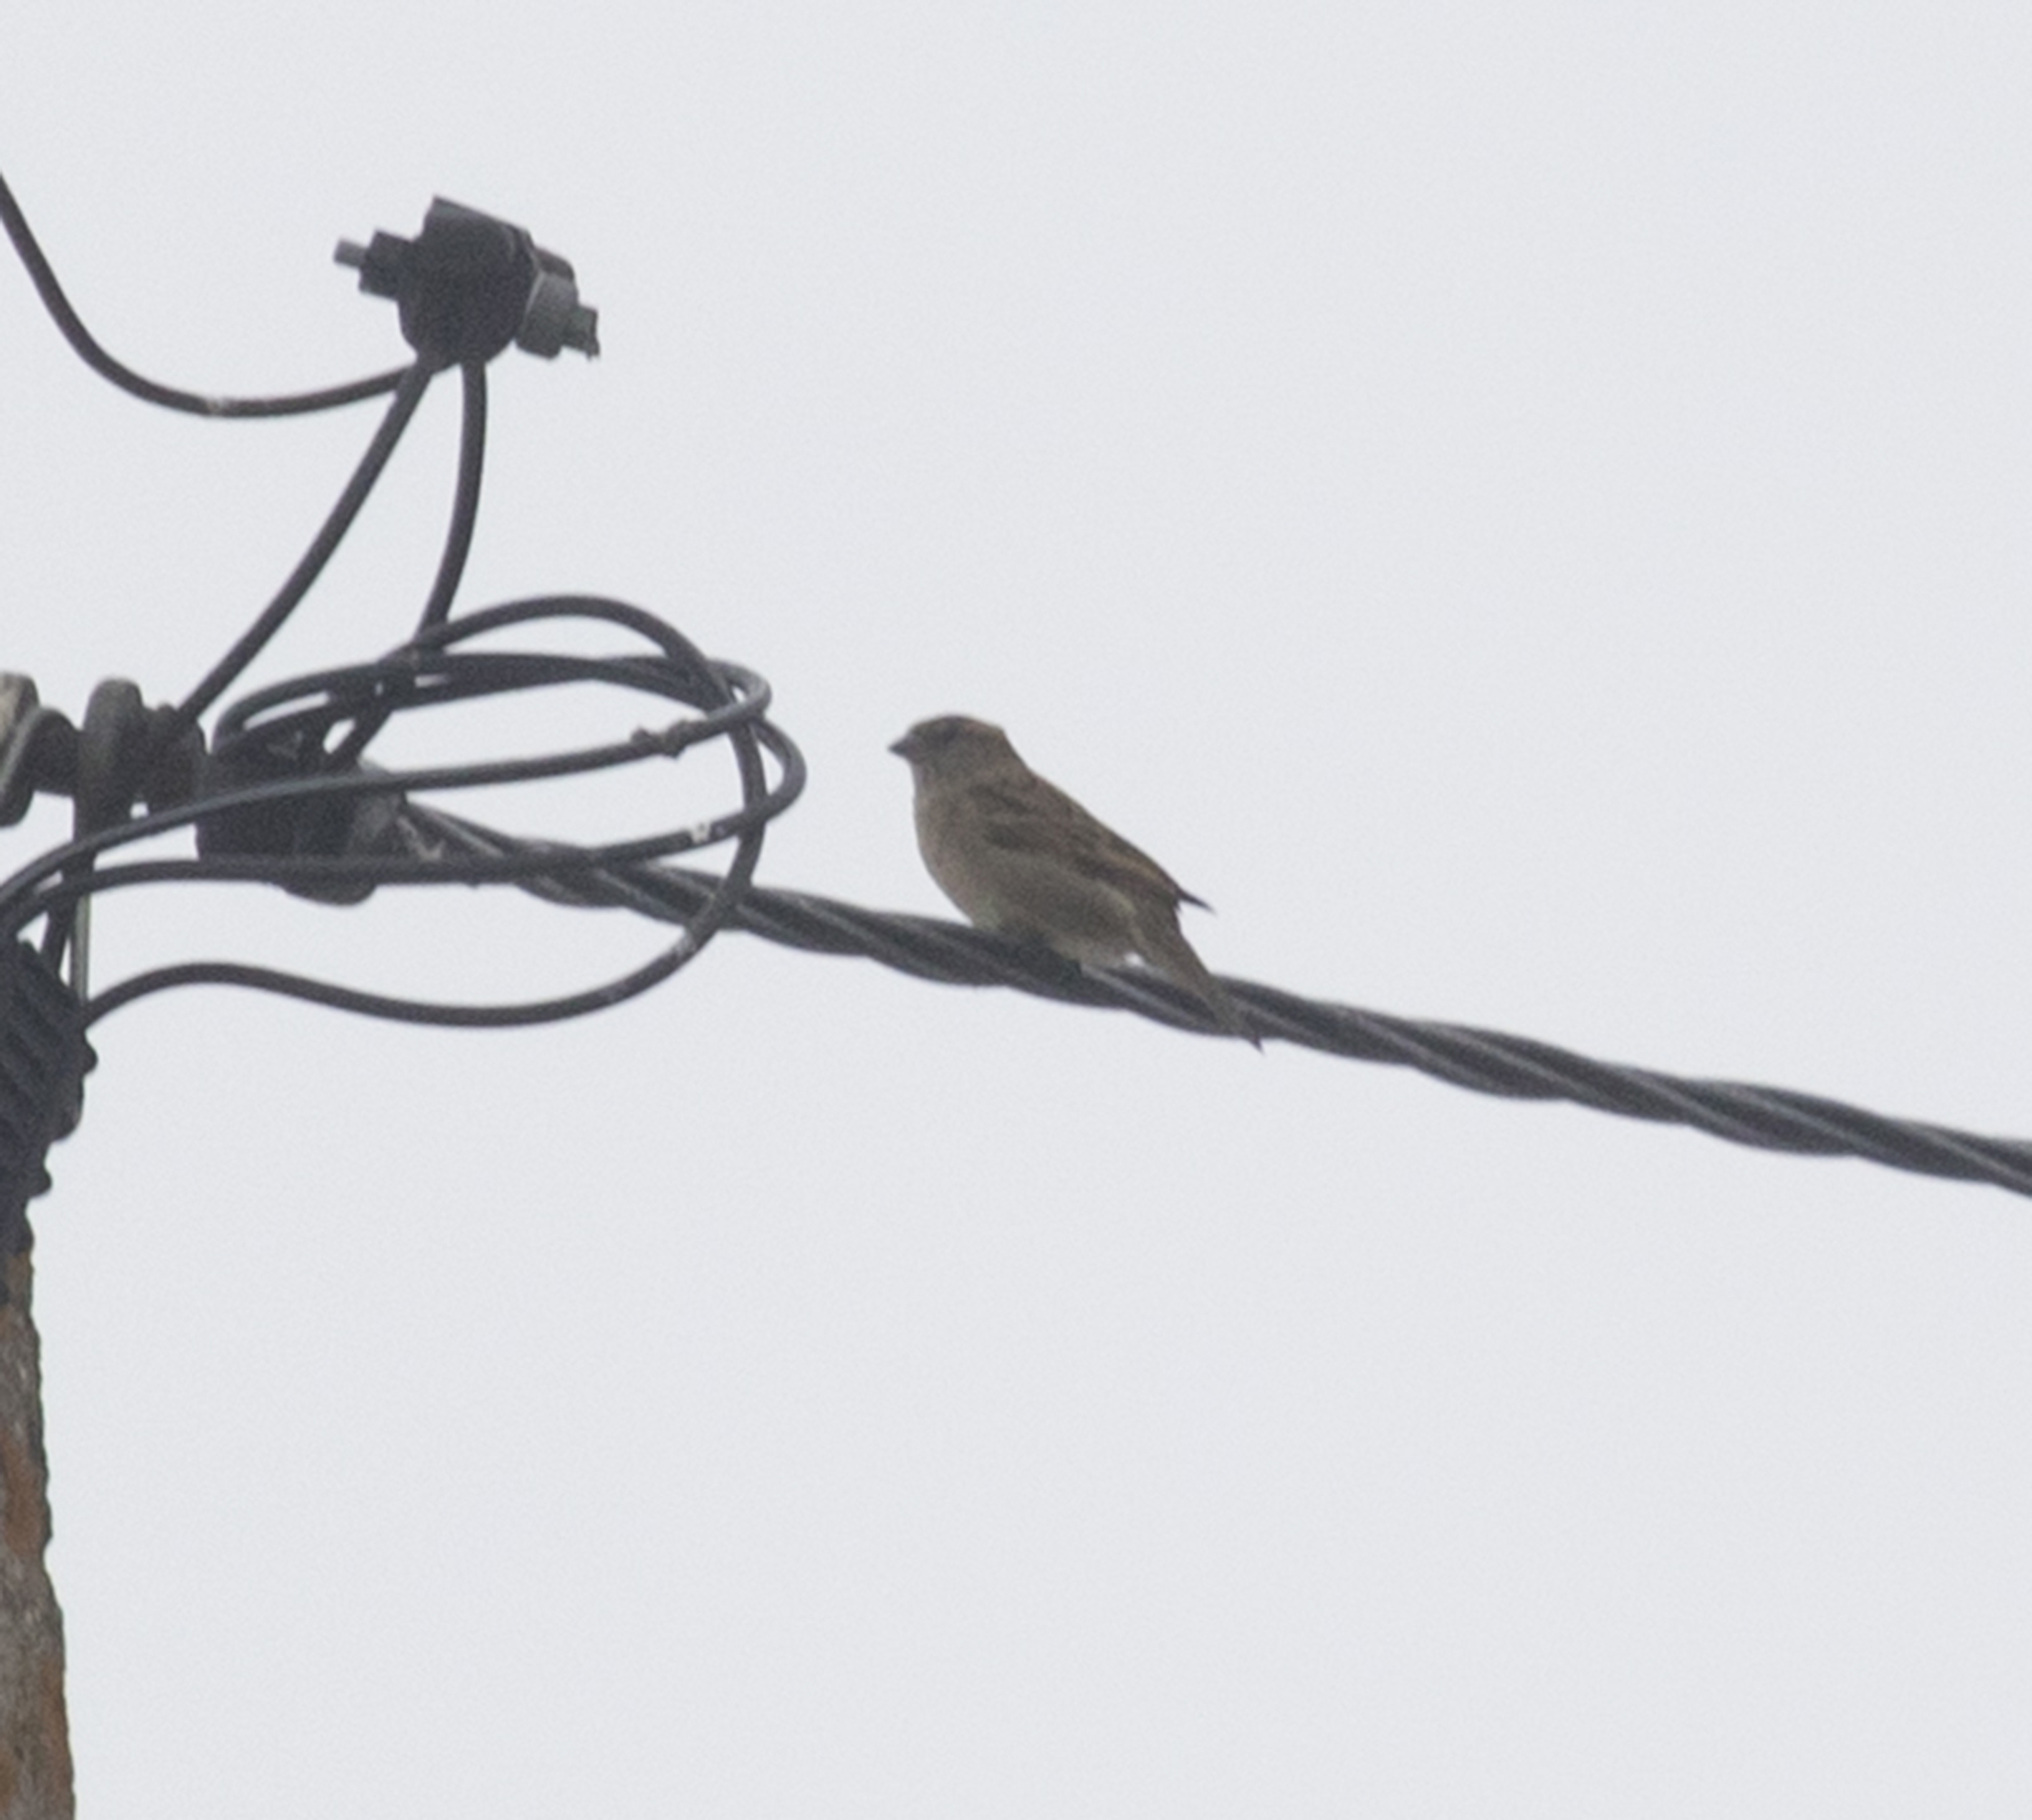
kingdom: Animalia
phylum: Chordata
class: Aves
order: Passeriformes
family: Passeridae
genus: Passer
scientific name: Passer domesticus
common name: House sparrow
